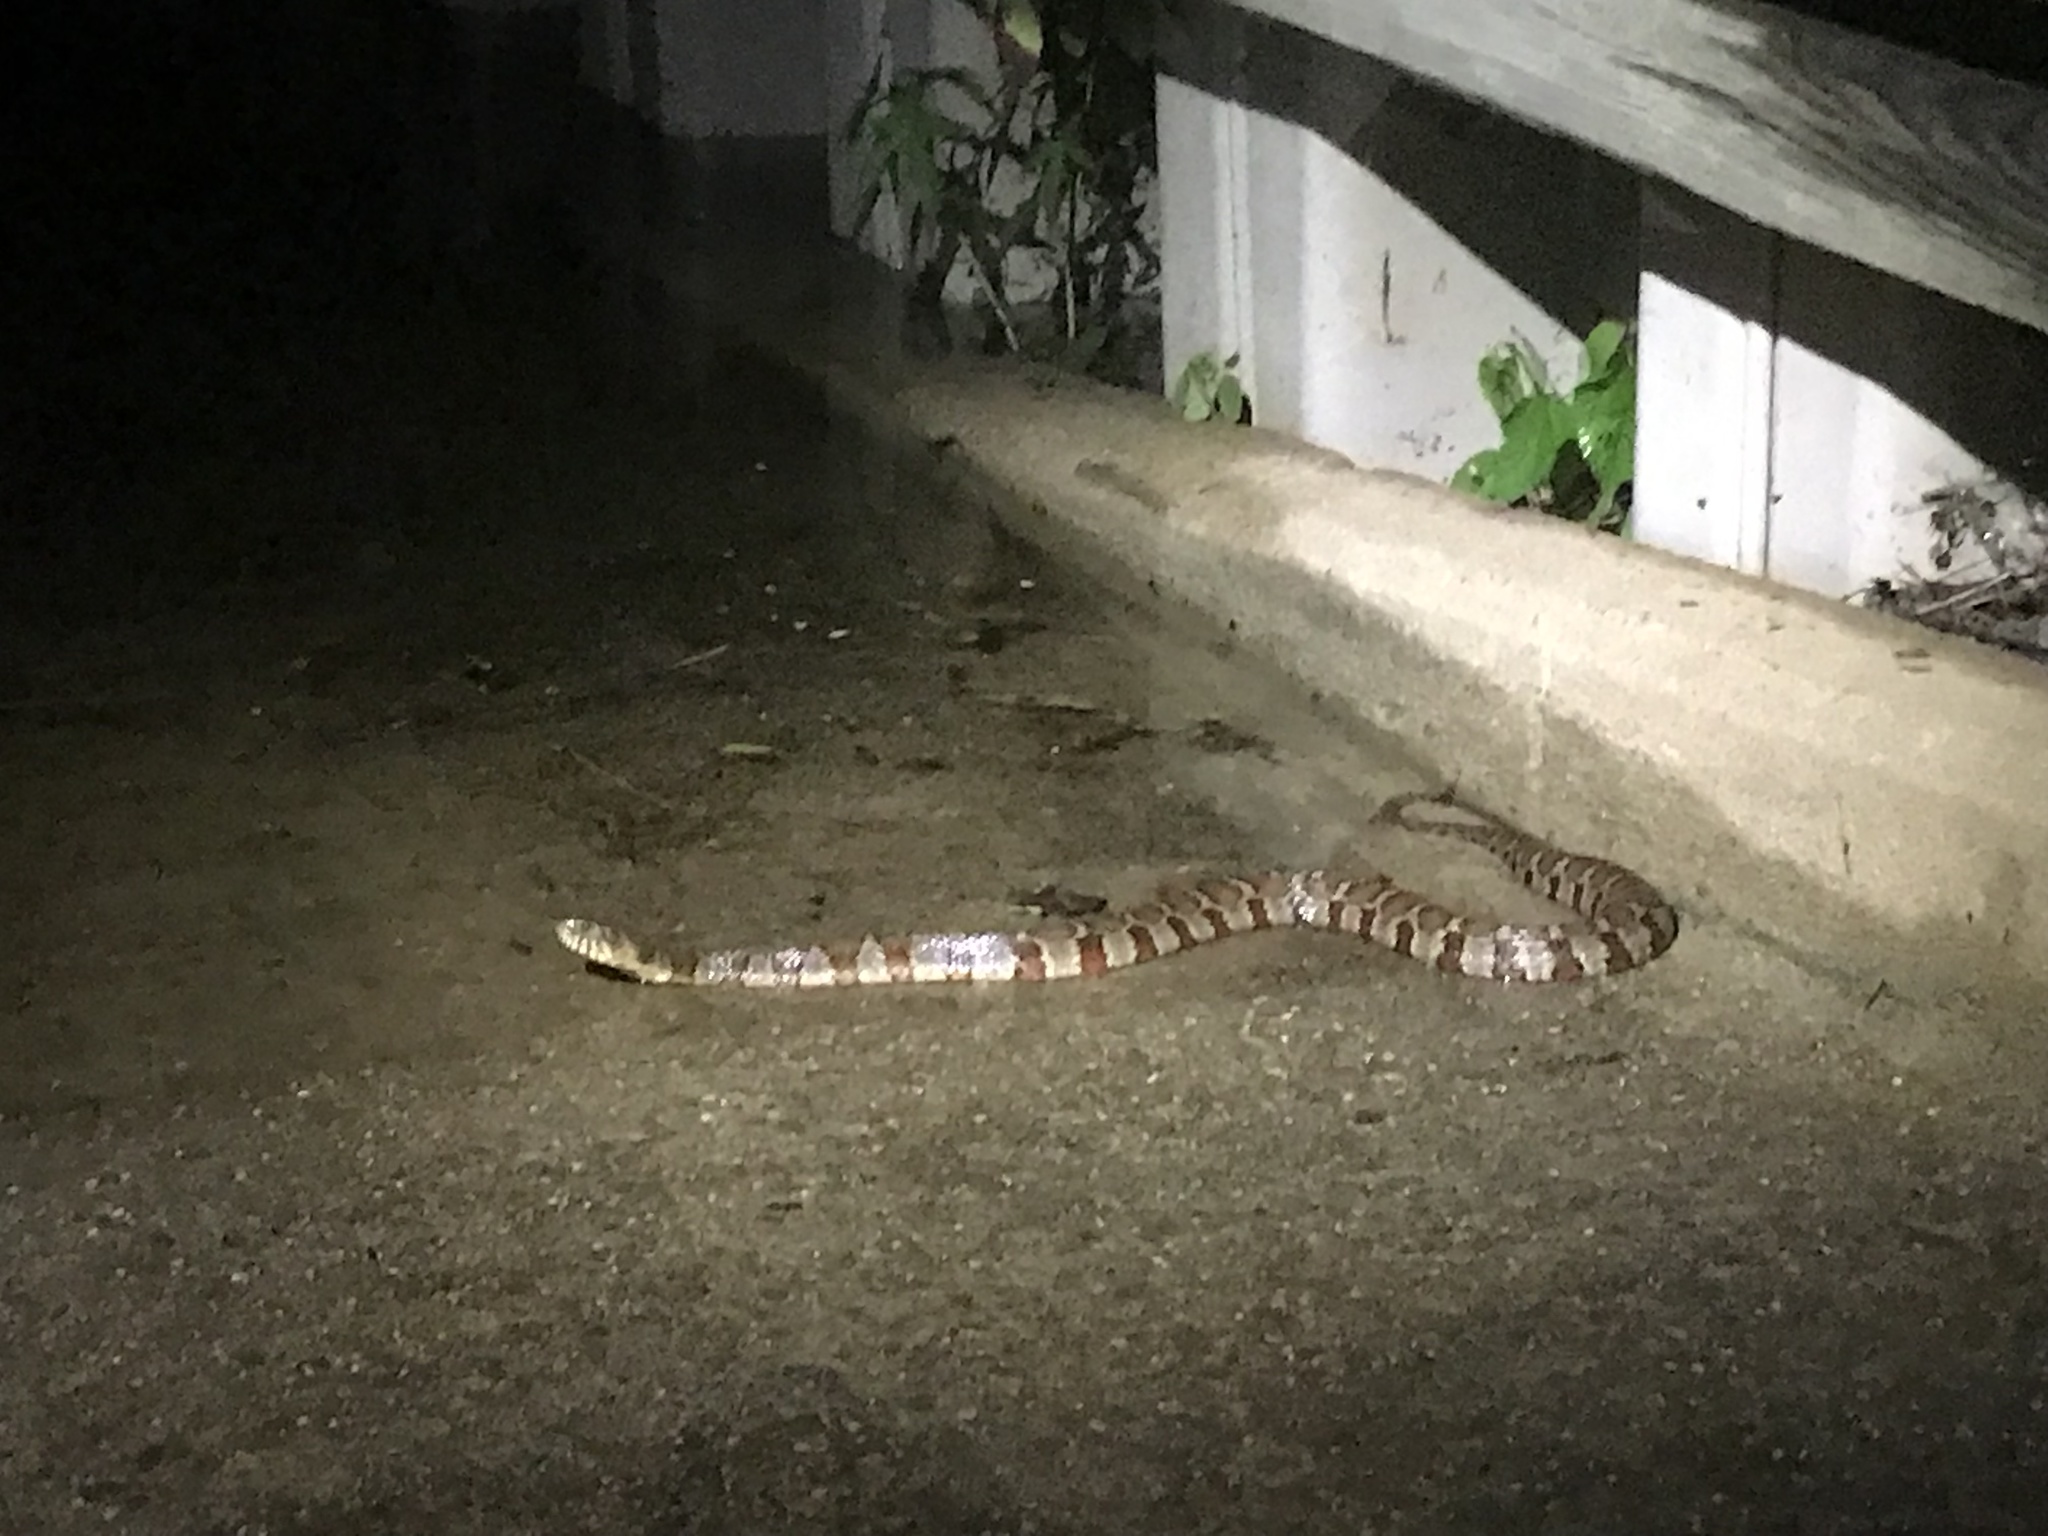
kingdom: Animalia
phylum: Chordata
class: Squamata
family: Colubridae
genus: Nerodia
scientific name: Nerodia sipedon
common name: Northern water snake
